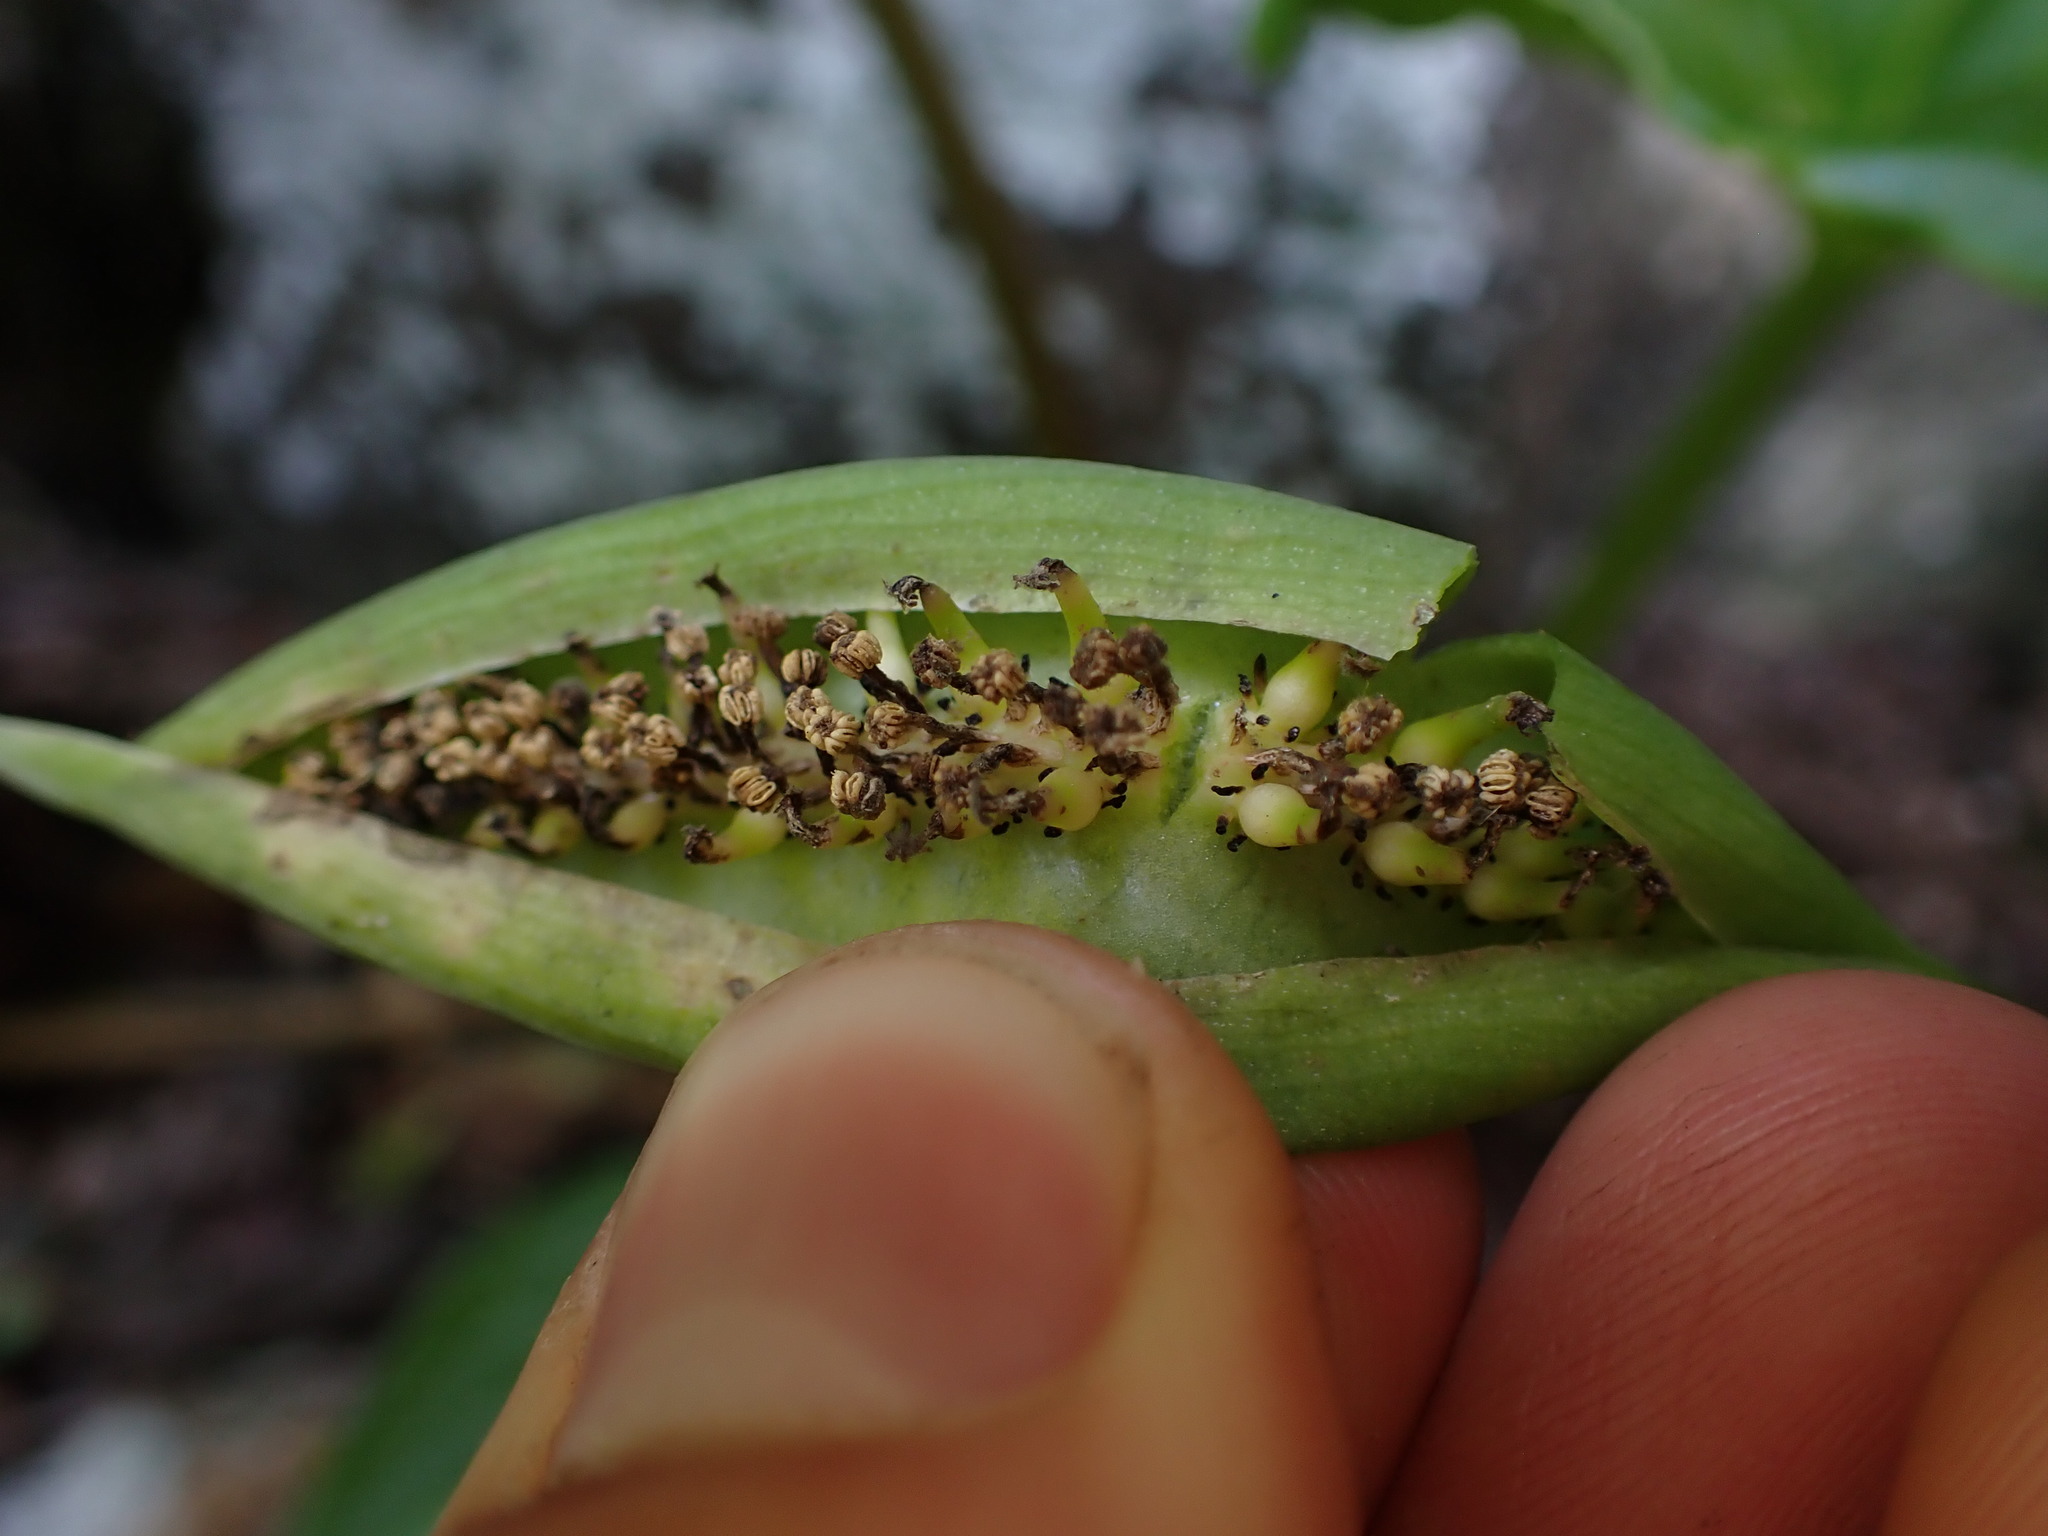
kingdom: Plantae
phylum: Tracheophyta
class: Liliopsida
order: Alismatales
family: Araceae
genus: Spathantheum
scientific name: Spathantheum orbignyanum
